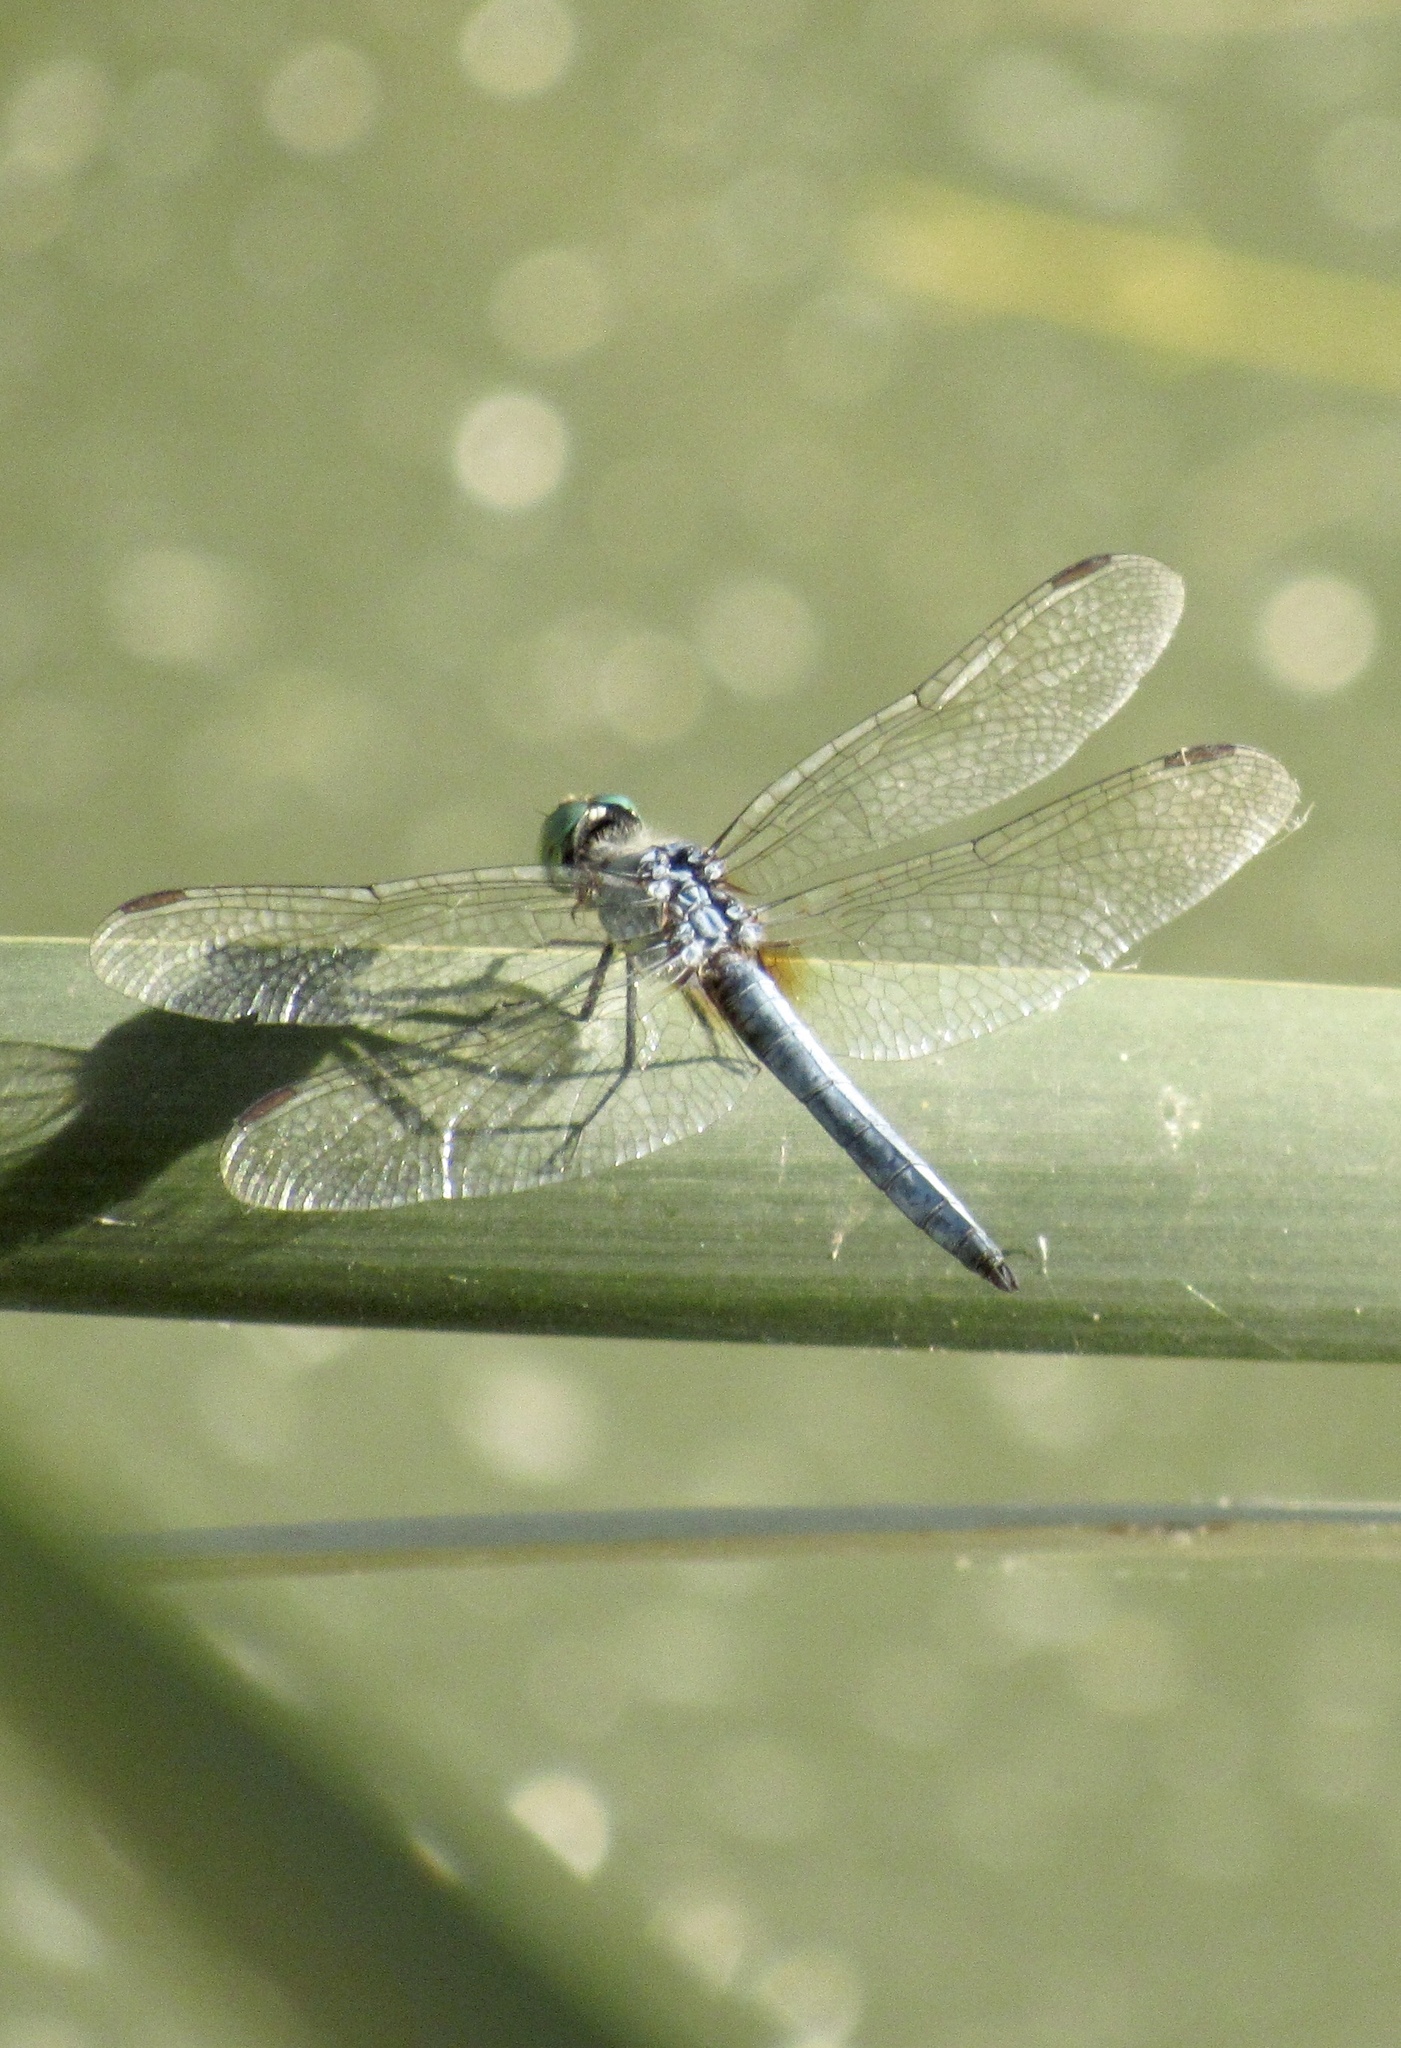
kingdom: Animalia
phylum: Arthropoda
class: Insecta
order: Odonata
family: Libellulidae
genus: Pachydiplax
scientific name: Pachydiplax longipennis
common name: Blue dasher
